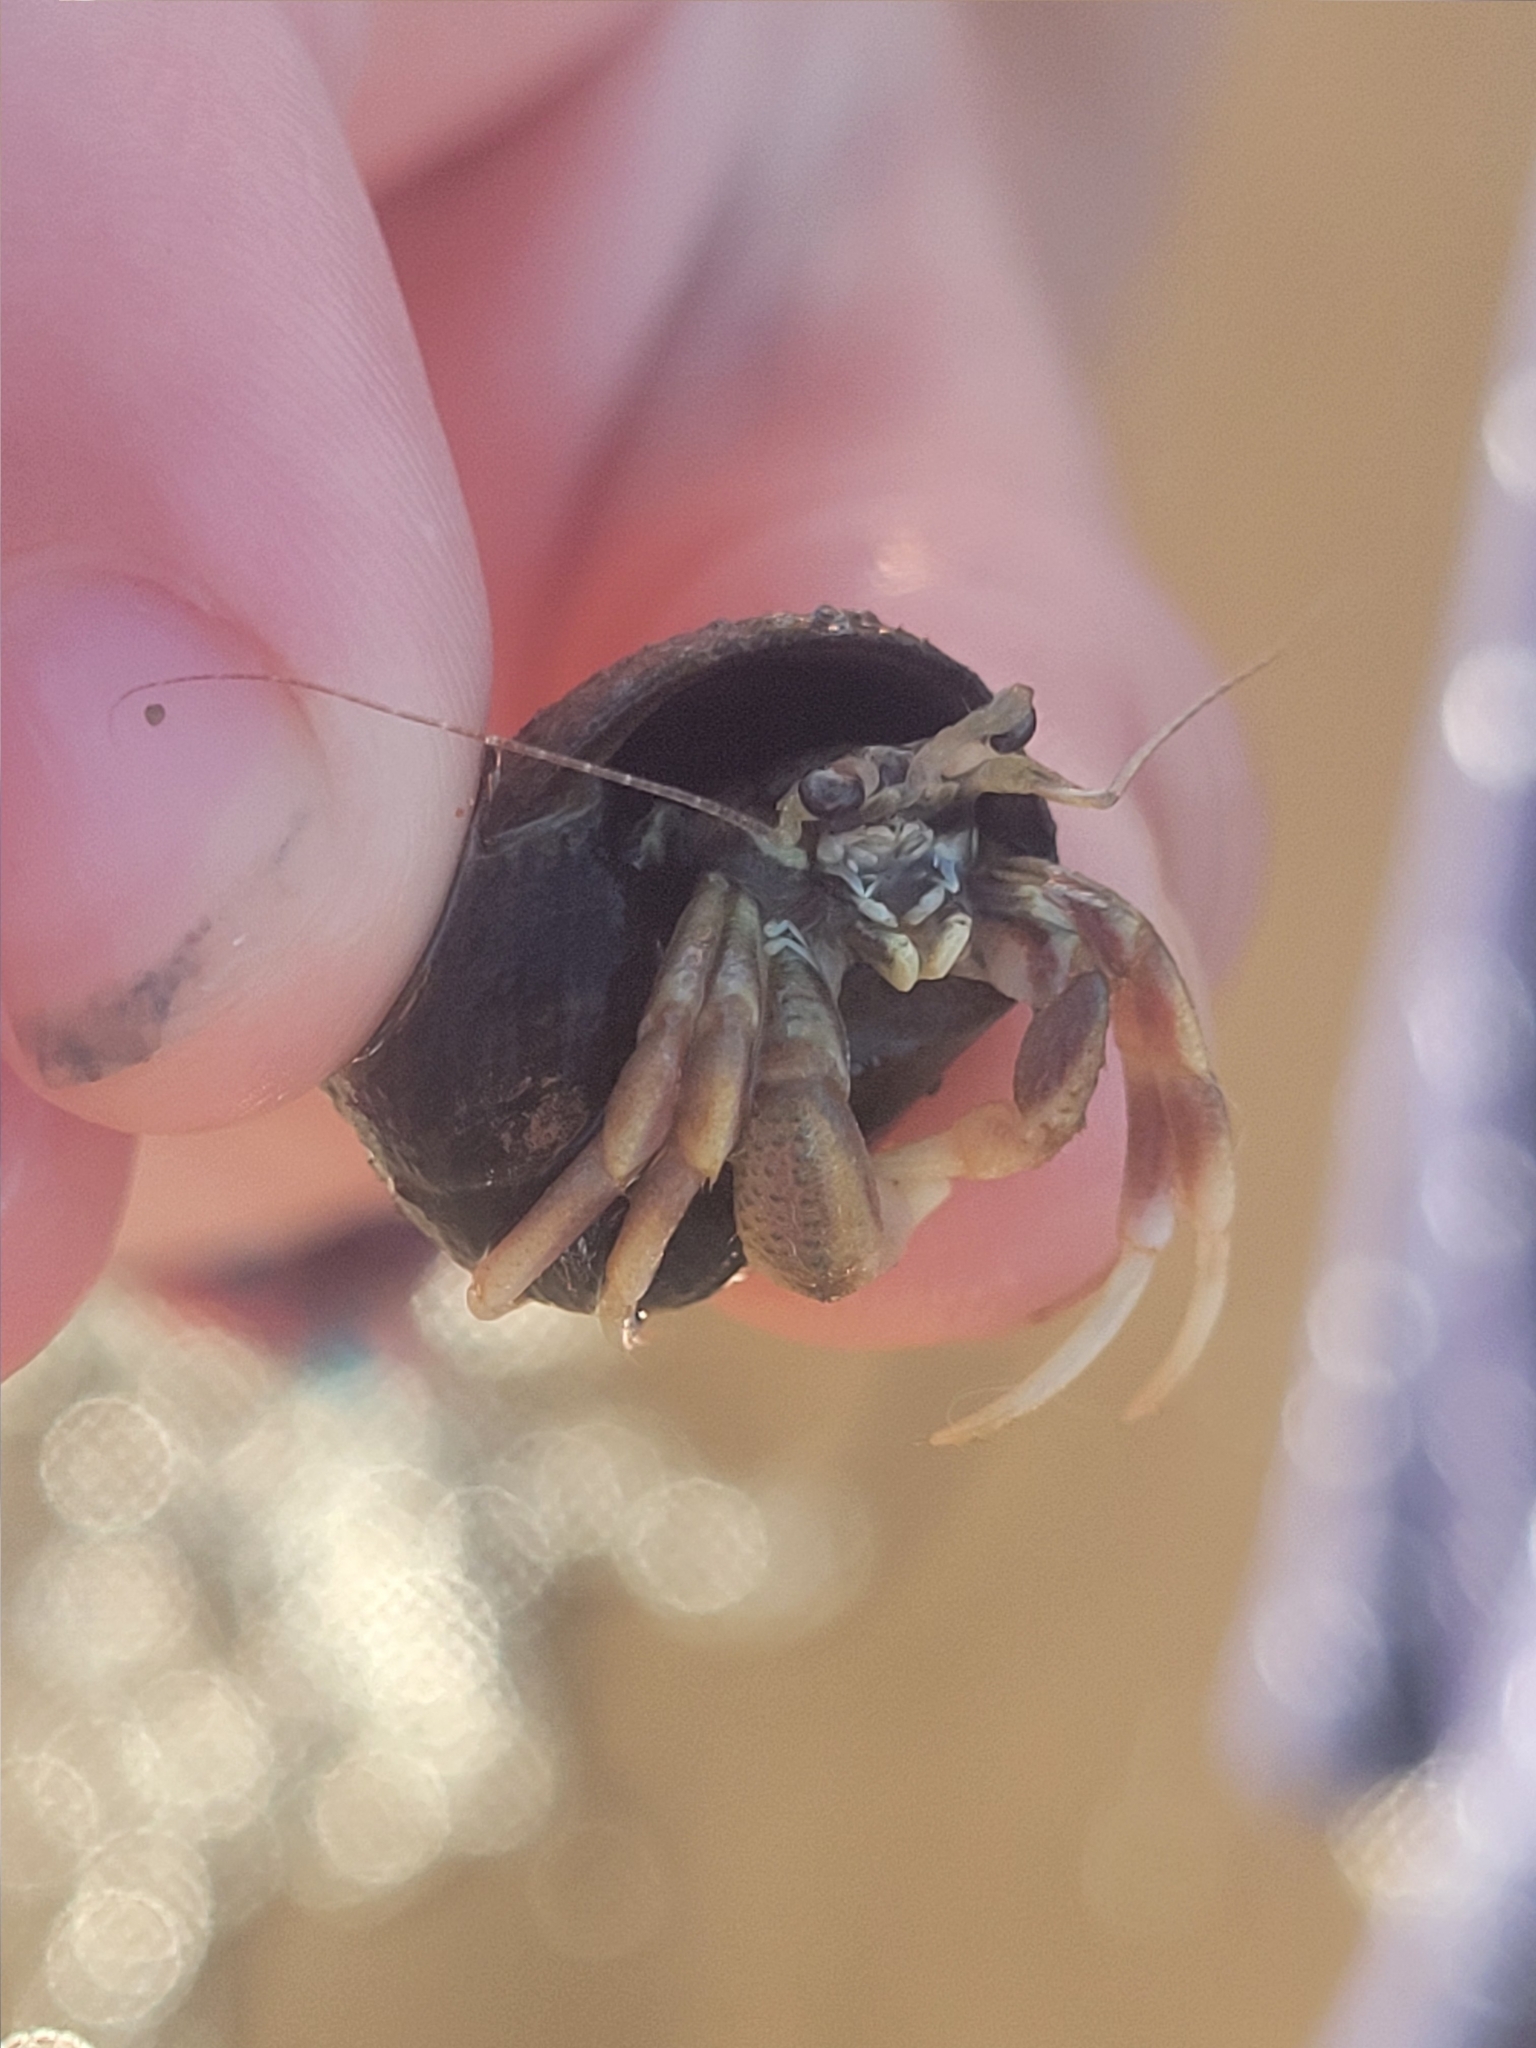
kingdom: Animalia
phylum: Arthropoda
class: Malacostraca
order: Decapoda
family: Paguridae
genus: Pagurus
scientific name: Pagurus longicarpus
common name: Long-armed hermit crab
